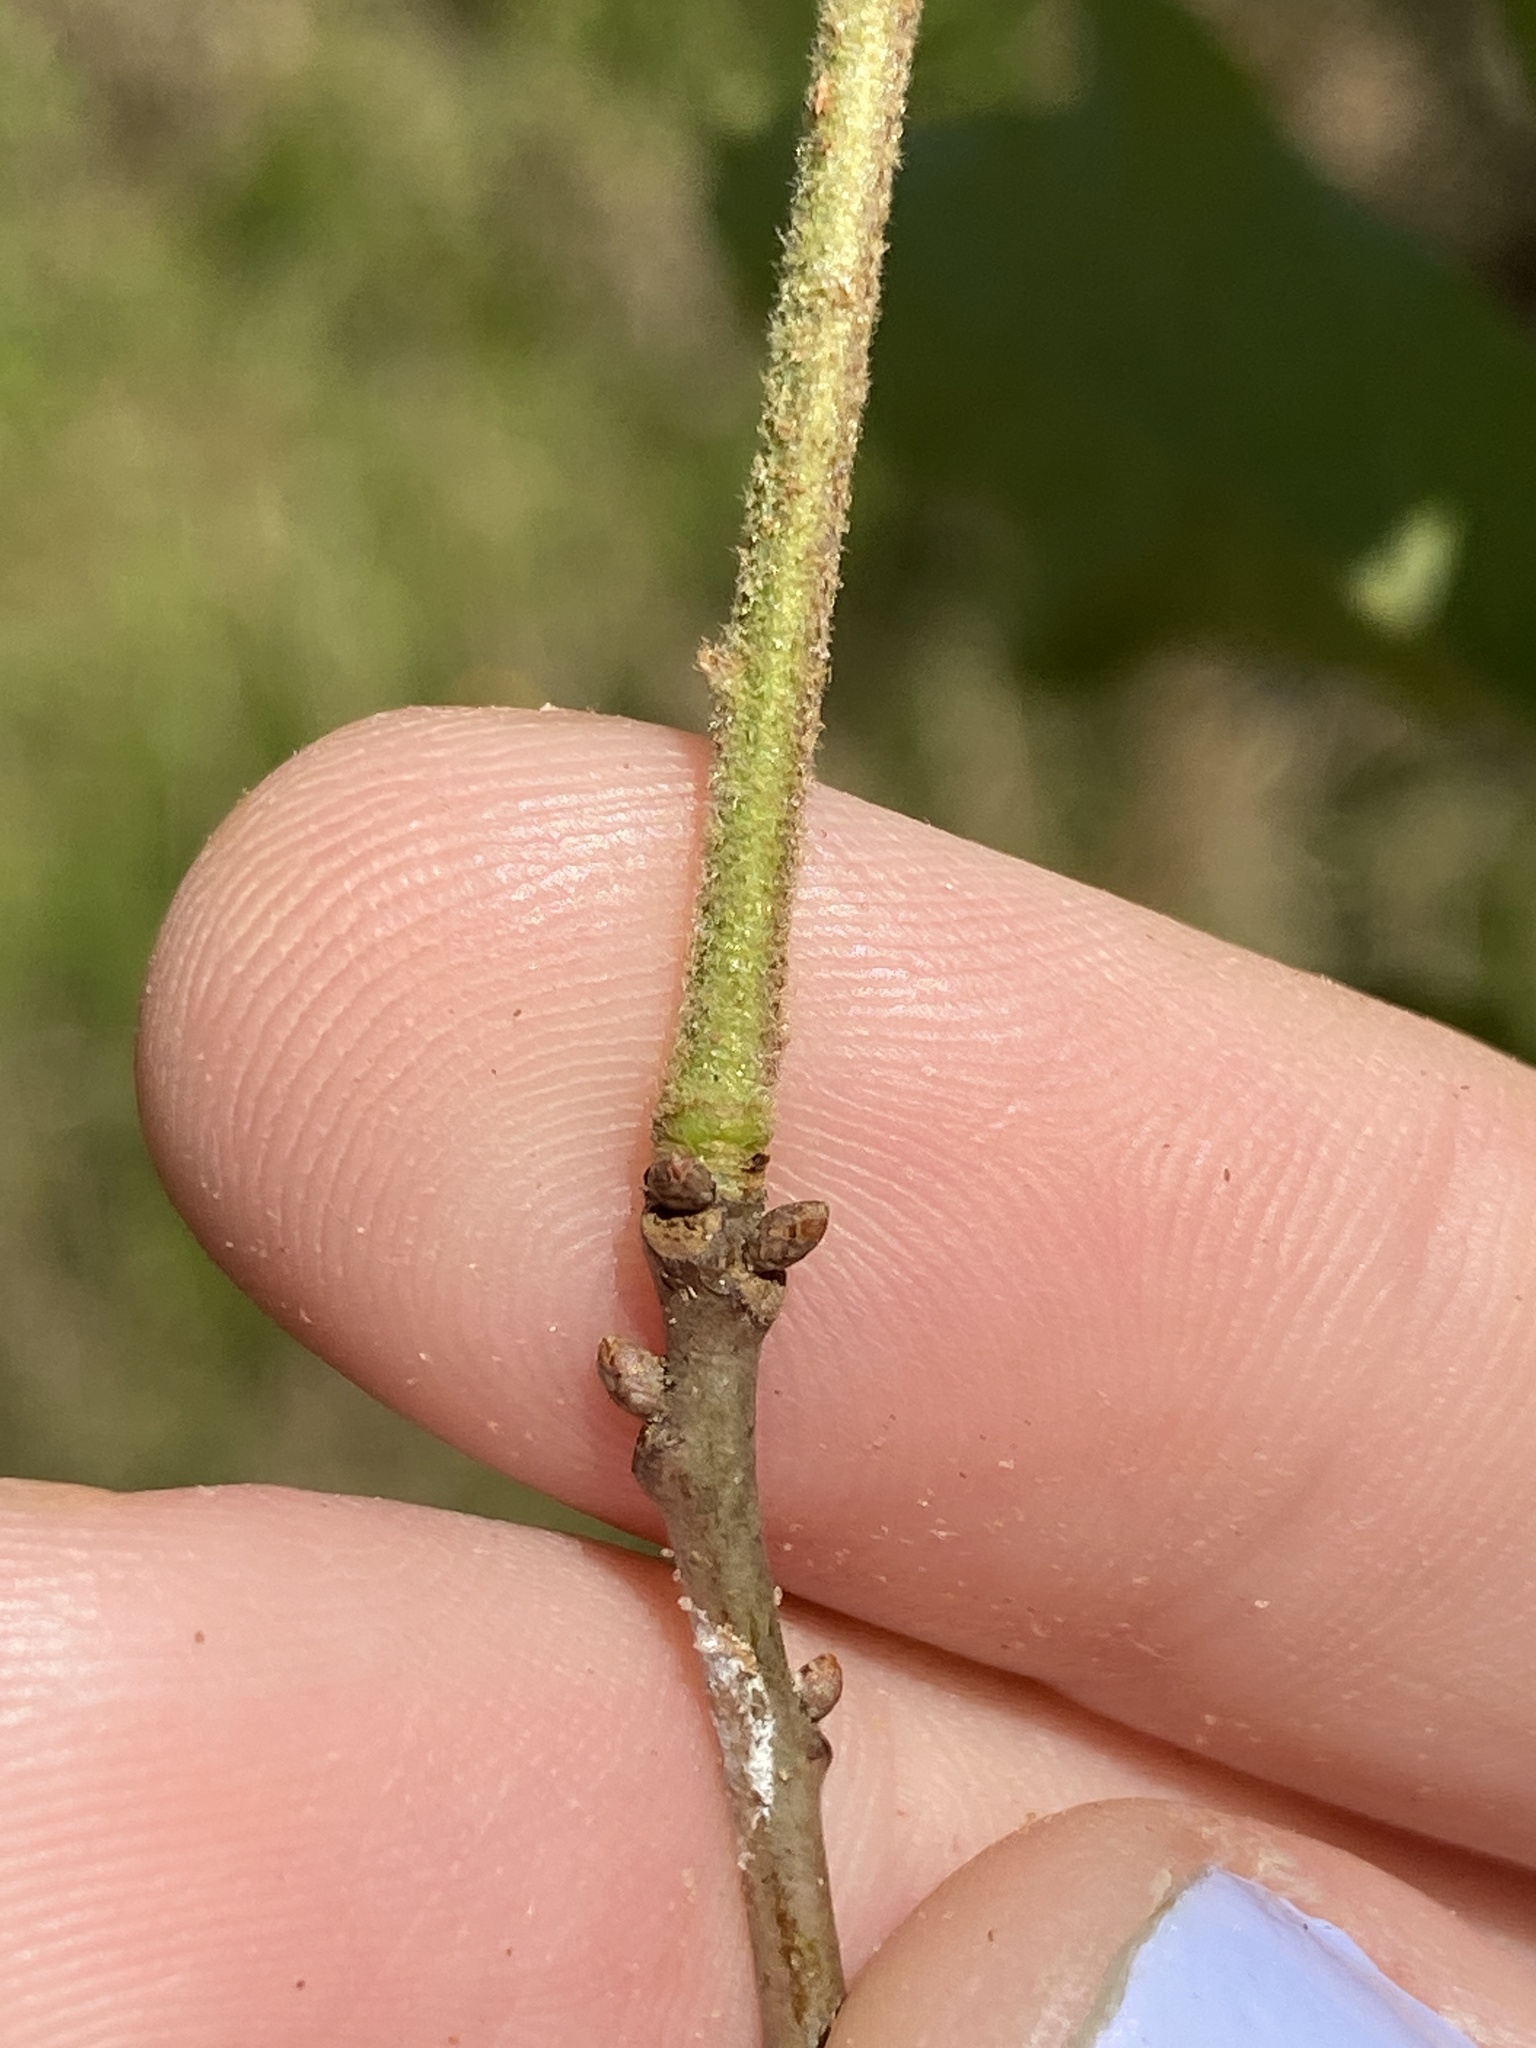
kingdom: Plantae
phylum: Tracheophyta
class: Magnoliopsida
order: Fagales
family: Fagaceae
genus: Quercus
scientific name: Quercus velutina
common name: Black oak
